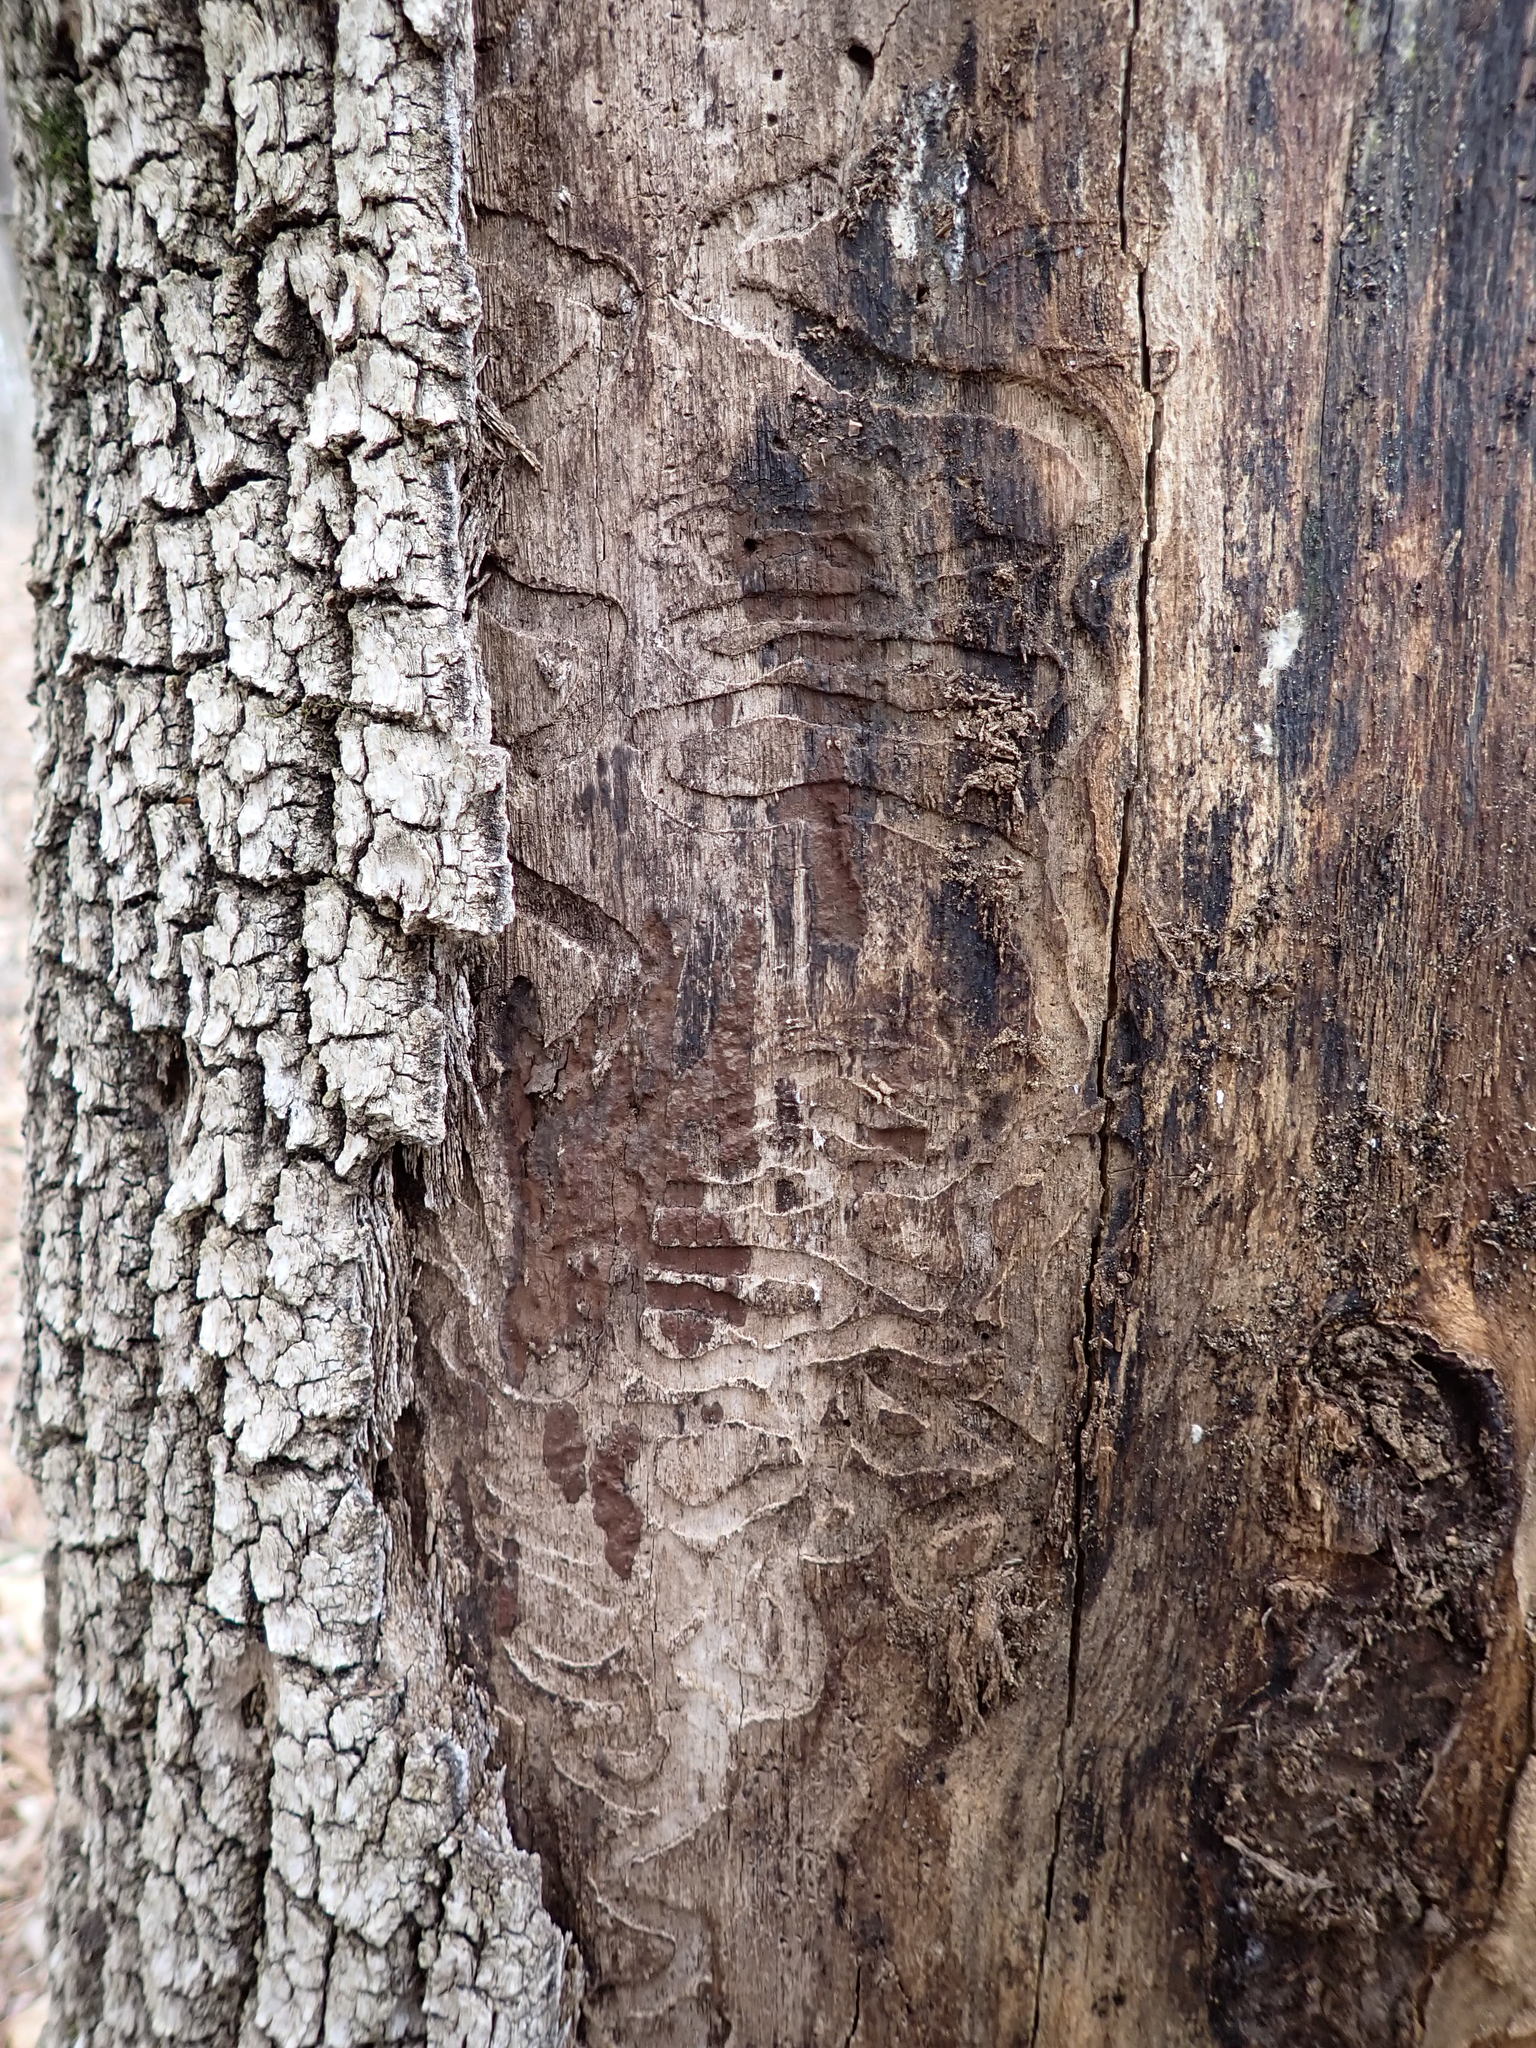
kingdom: Animalia
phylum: Arthropoda
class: Insecta
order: Coleoptera
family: Buprestidae
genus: Agrilus
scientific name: Agrilus planipennis
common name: Emerald ash borer
